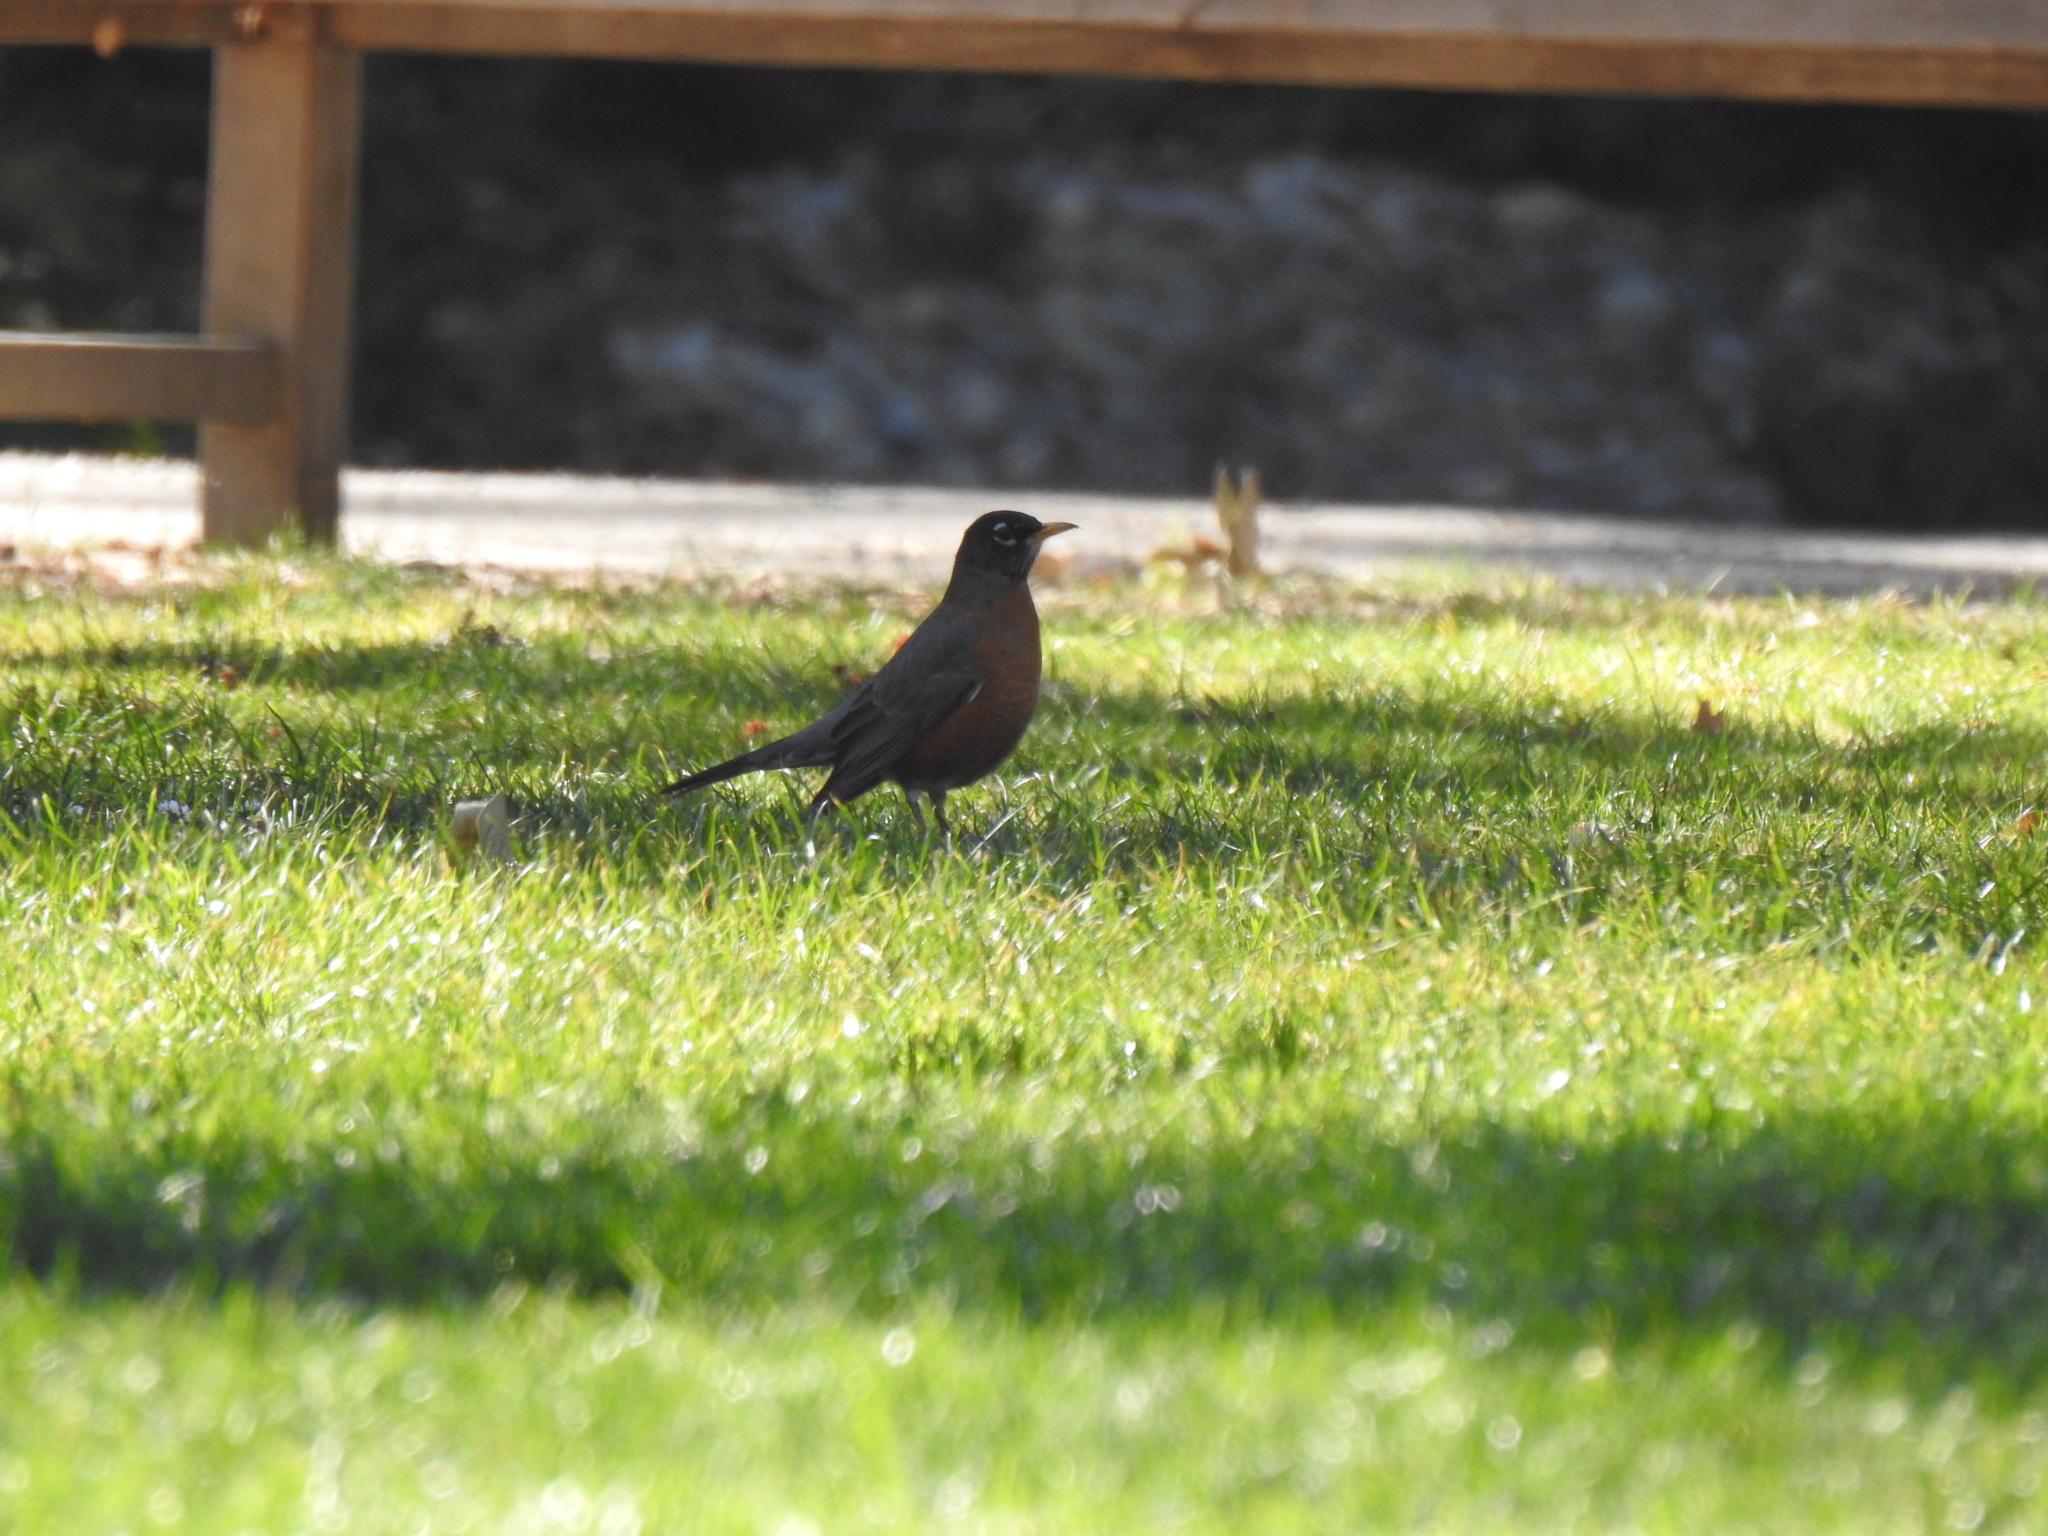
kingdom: Animalia
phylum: Chordata
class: Aves
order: Passeriformes
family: Turdidae
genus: Turdus
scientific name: Turdus migratorius
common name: American robin
